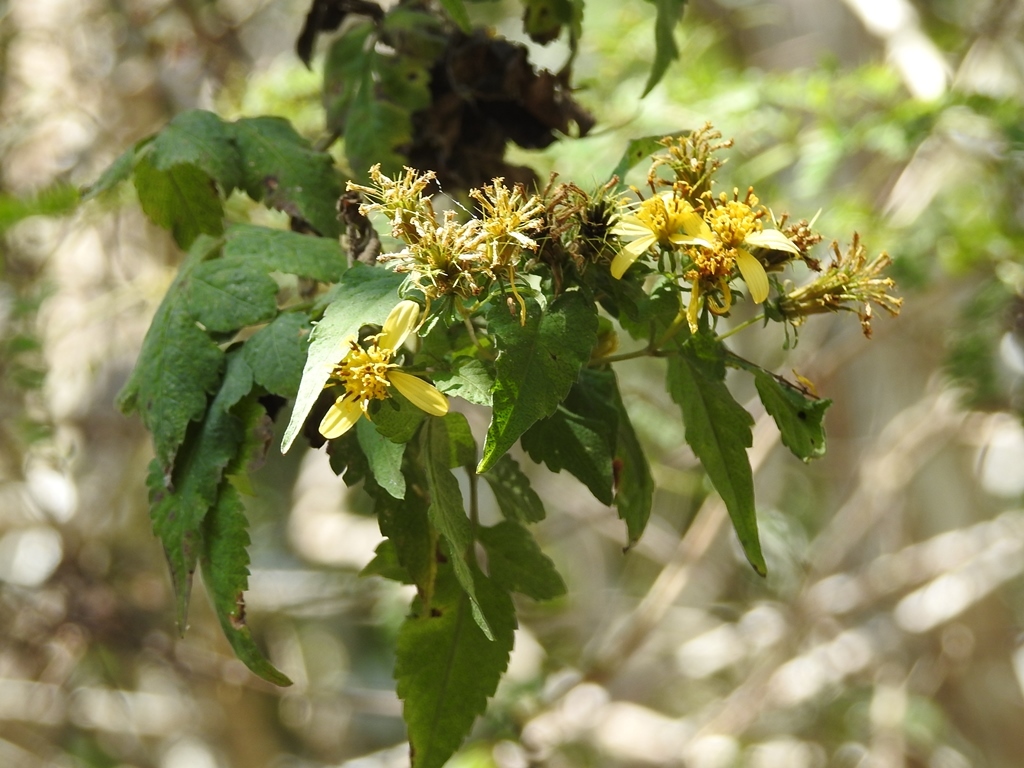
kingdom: Plantae
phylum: Tracheophyta
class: Magnoliopsida
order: Asterales
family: Asteraceae
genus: Bidens
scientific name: Bidens reptans
